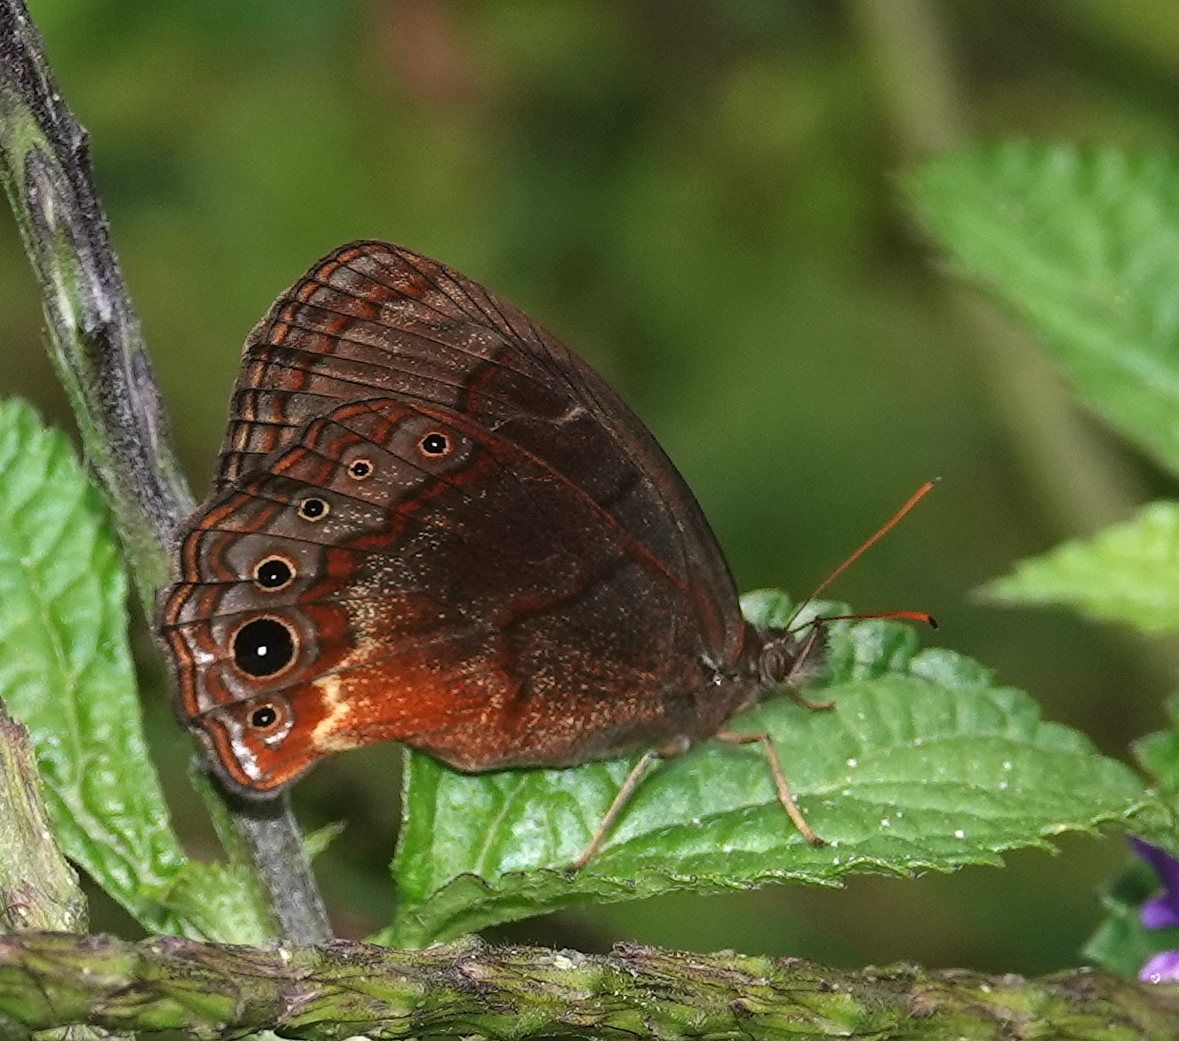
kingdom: Animalia
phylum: Arthropoda
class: Insecta
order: Lepidoptera
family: Nymphalidae
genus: Eretris
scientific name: Eretris calisto
